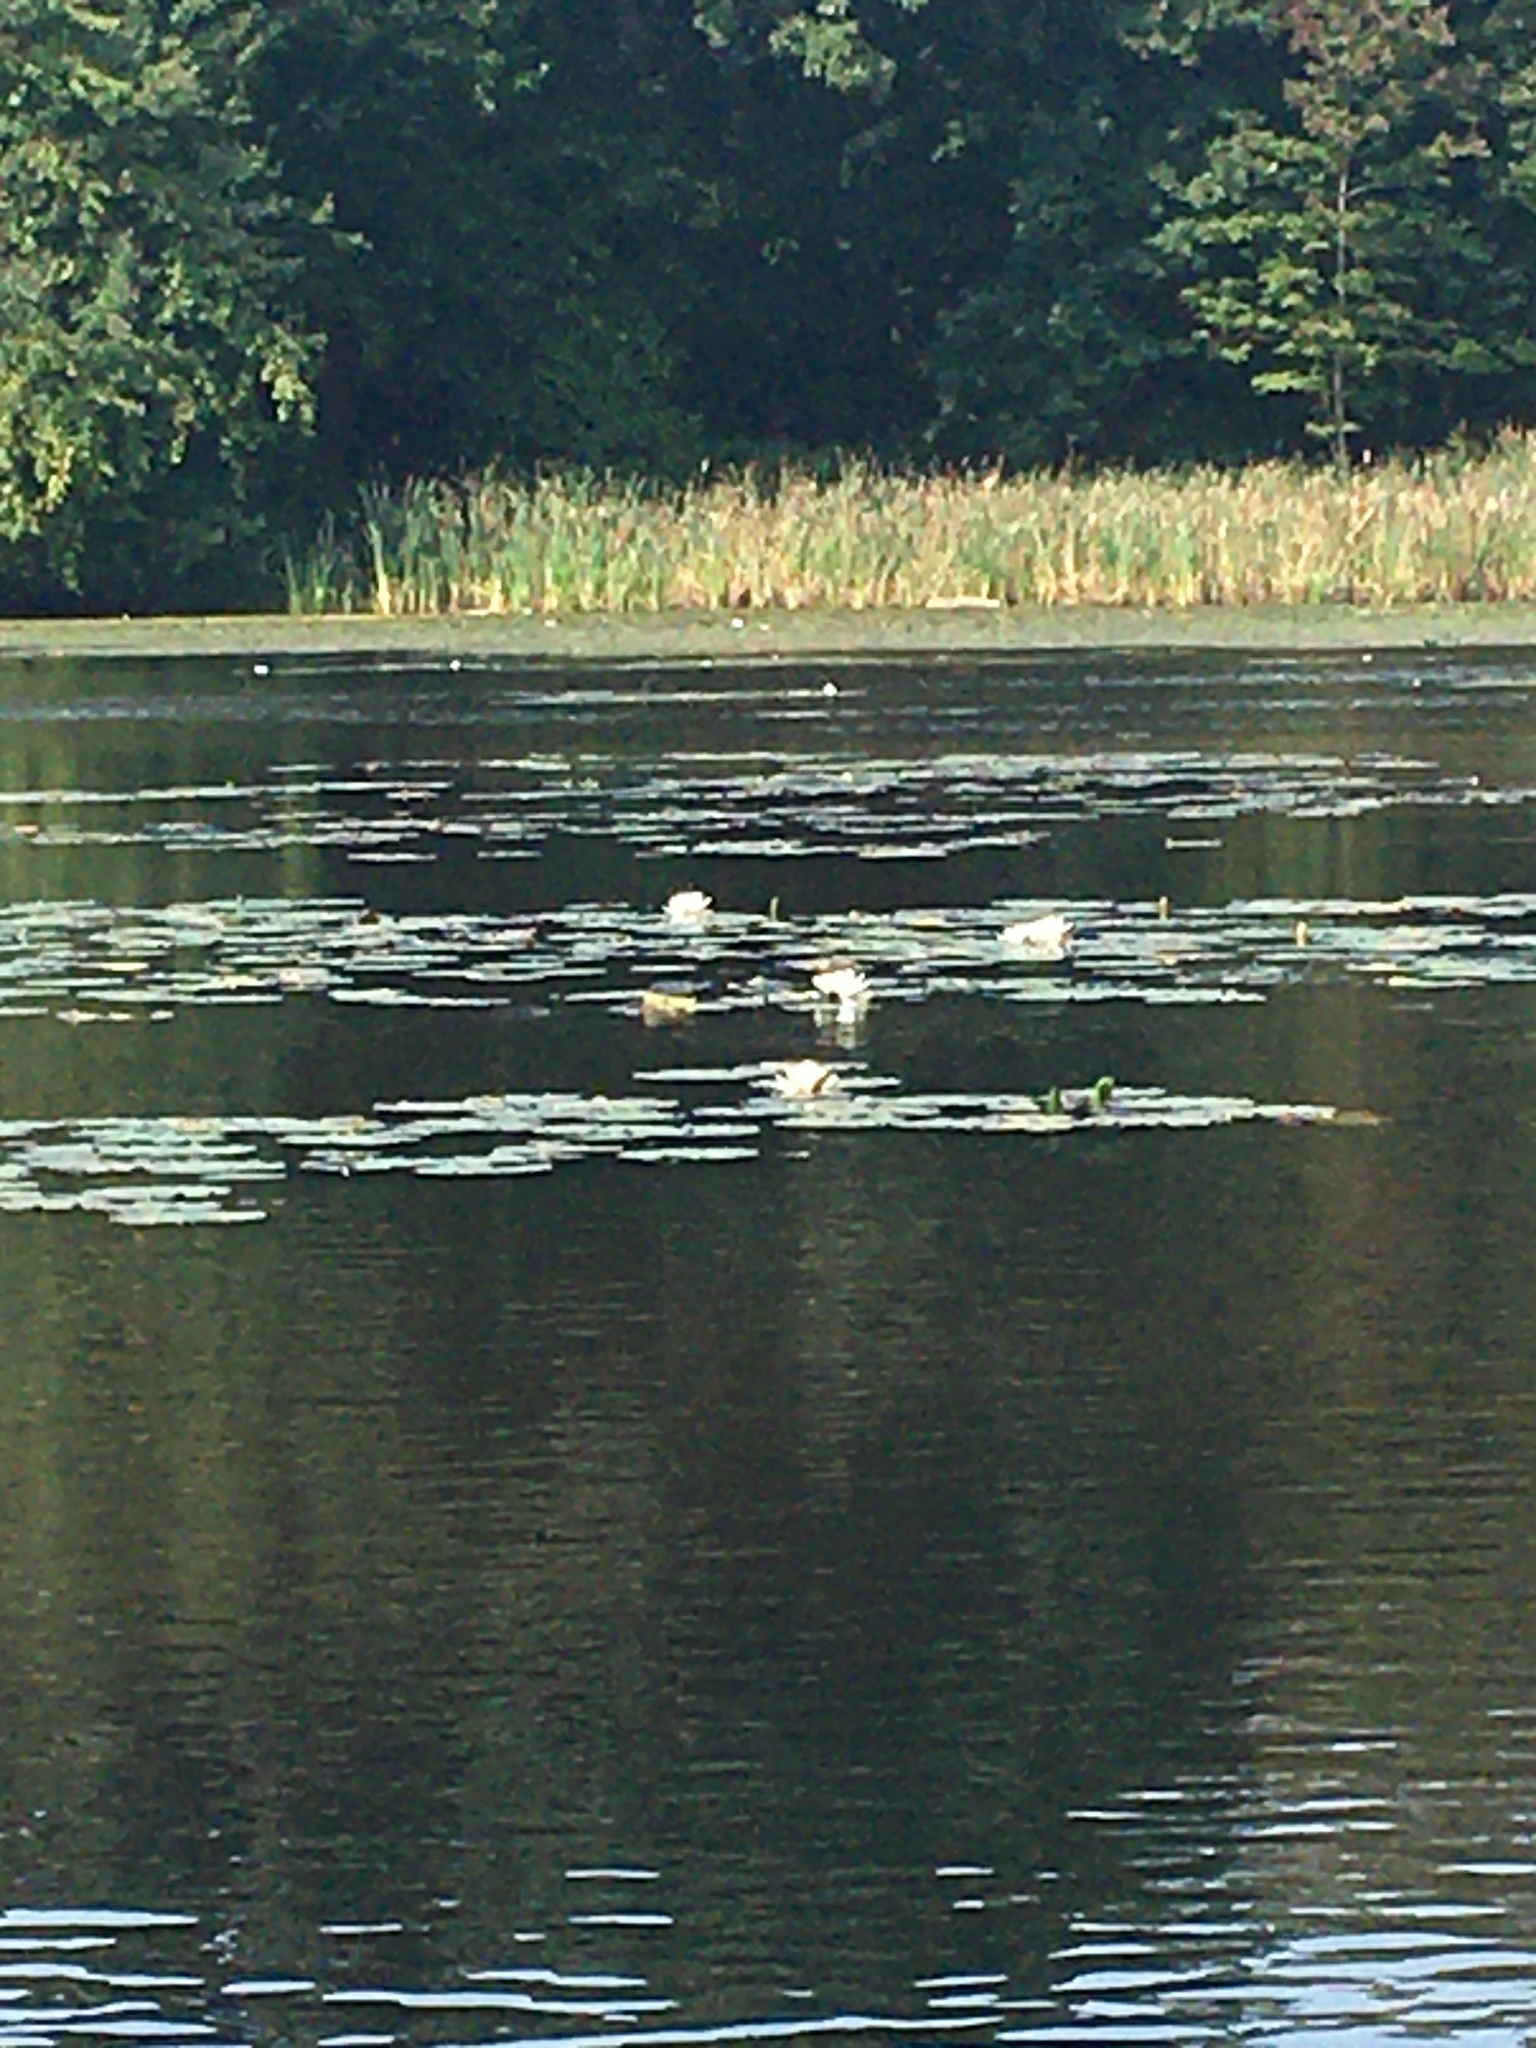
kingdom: Plantae
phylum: Tracheophyta
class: Magnoliopsida
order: Nymphaeales
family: Nymphaeaceae
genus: Nymphaea
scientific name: Nymphaea odorata
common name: Fragrant water-lily
